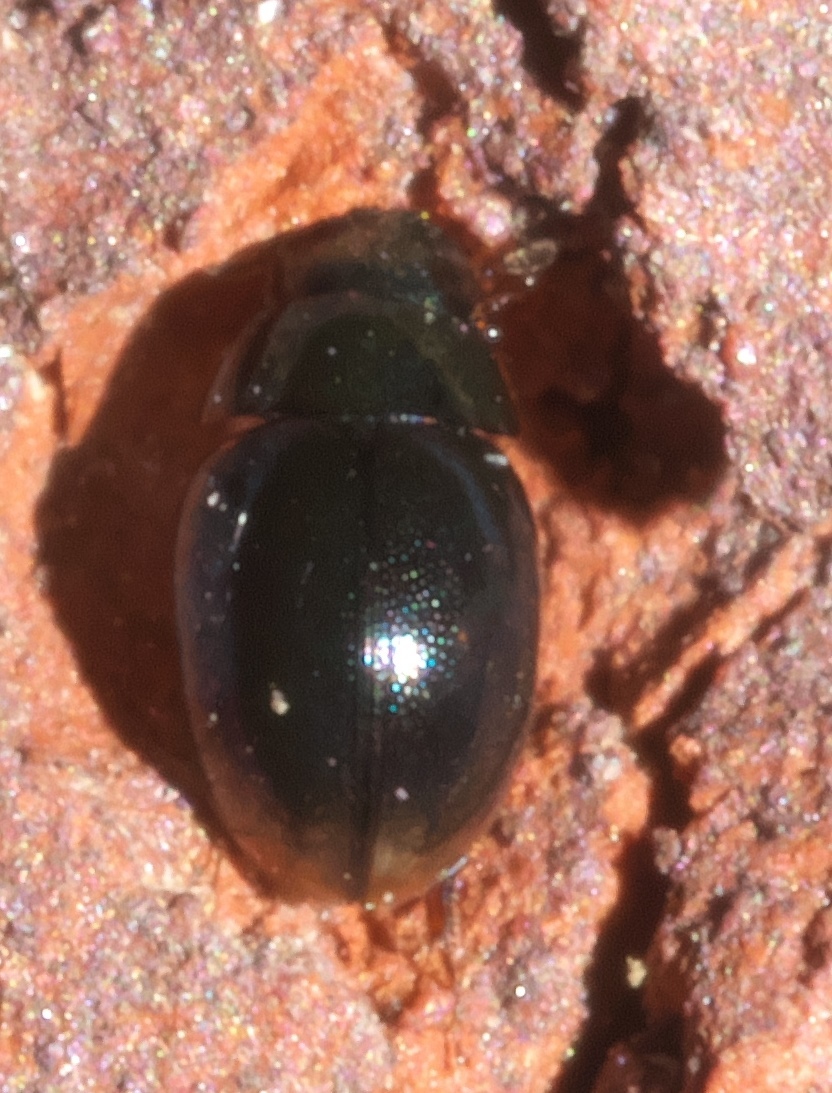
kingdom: Animalia
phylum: Arthropoda
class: Insecta
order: Coleoptera
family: Hydrophilidae
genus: Paracymus
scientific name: Paracymus
